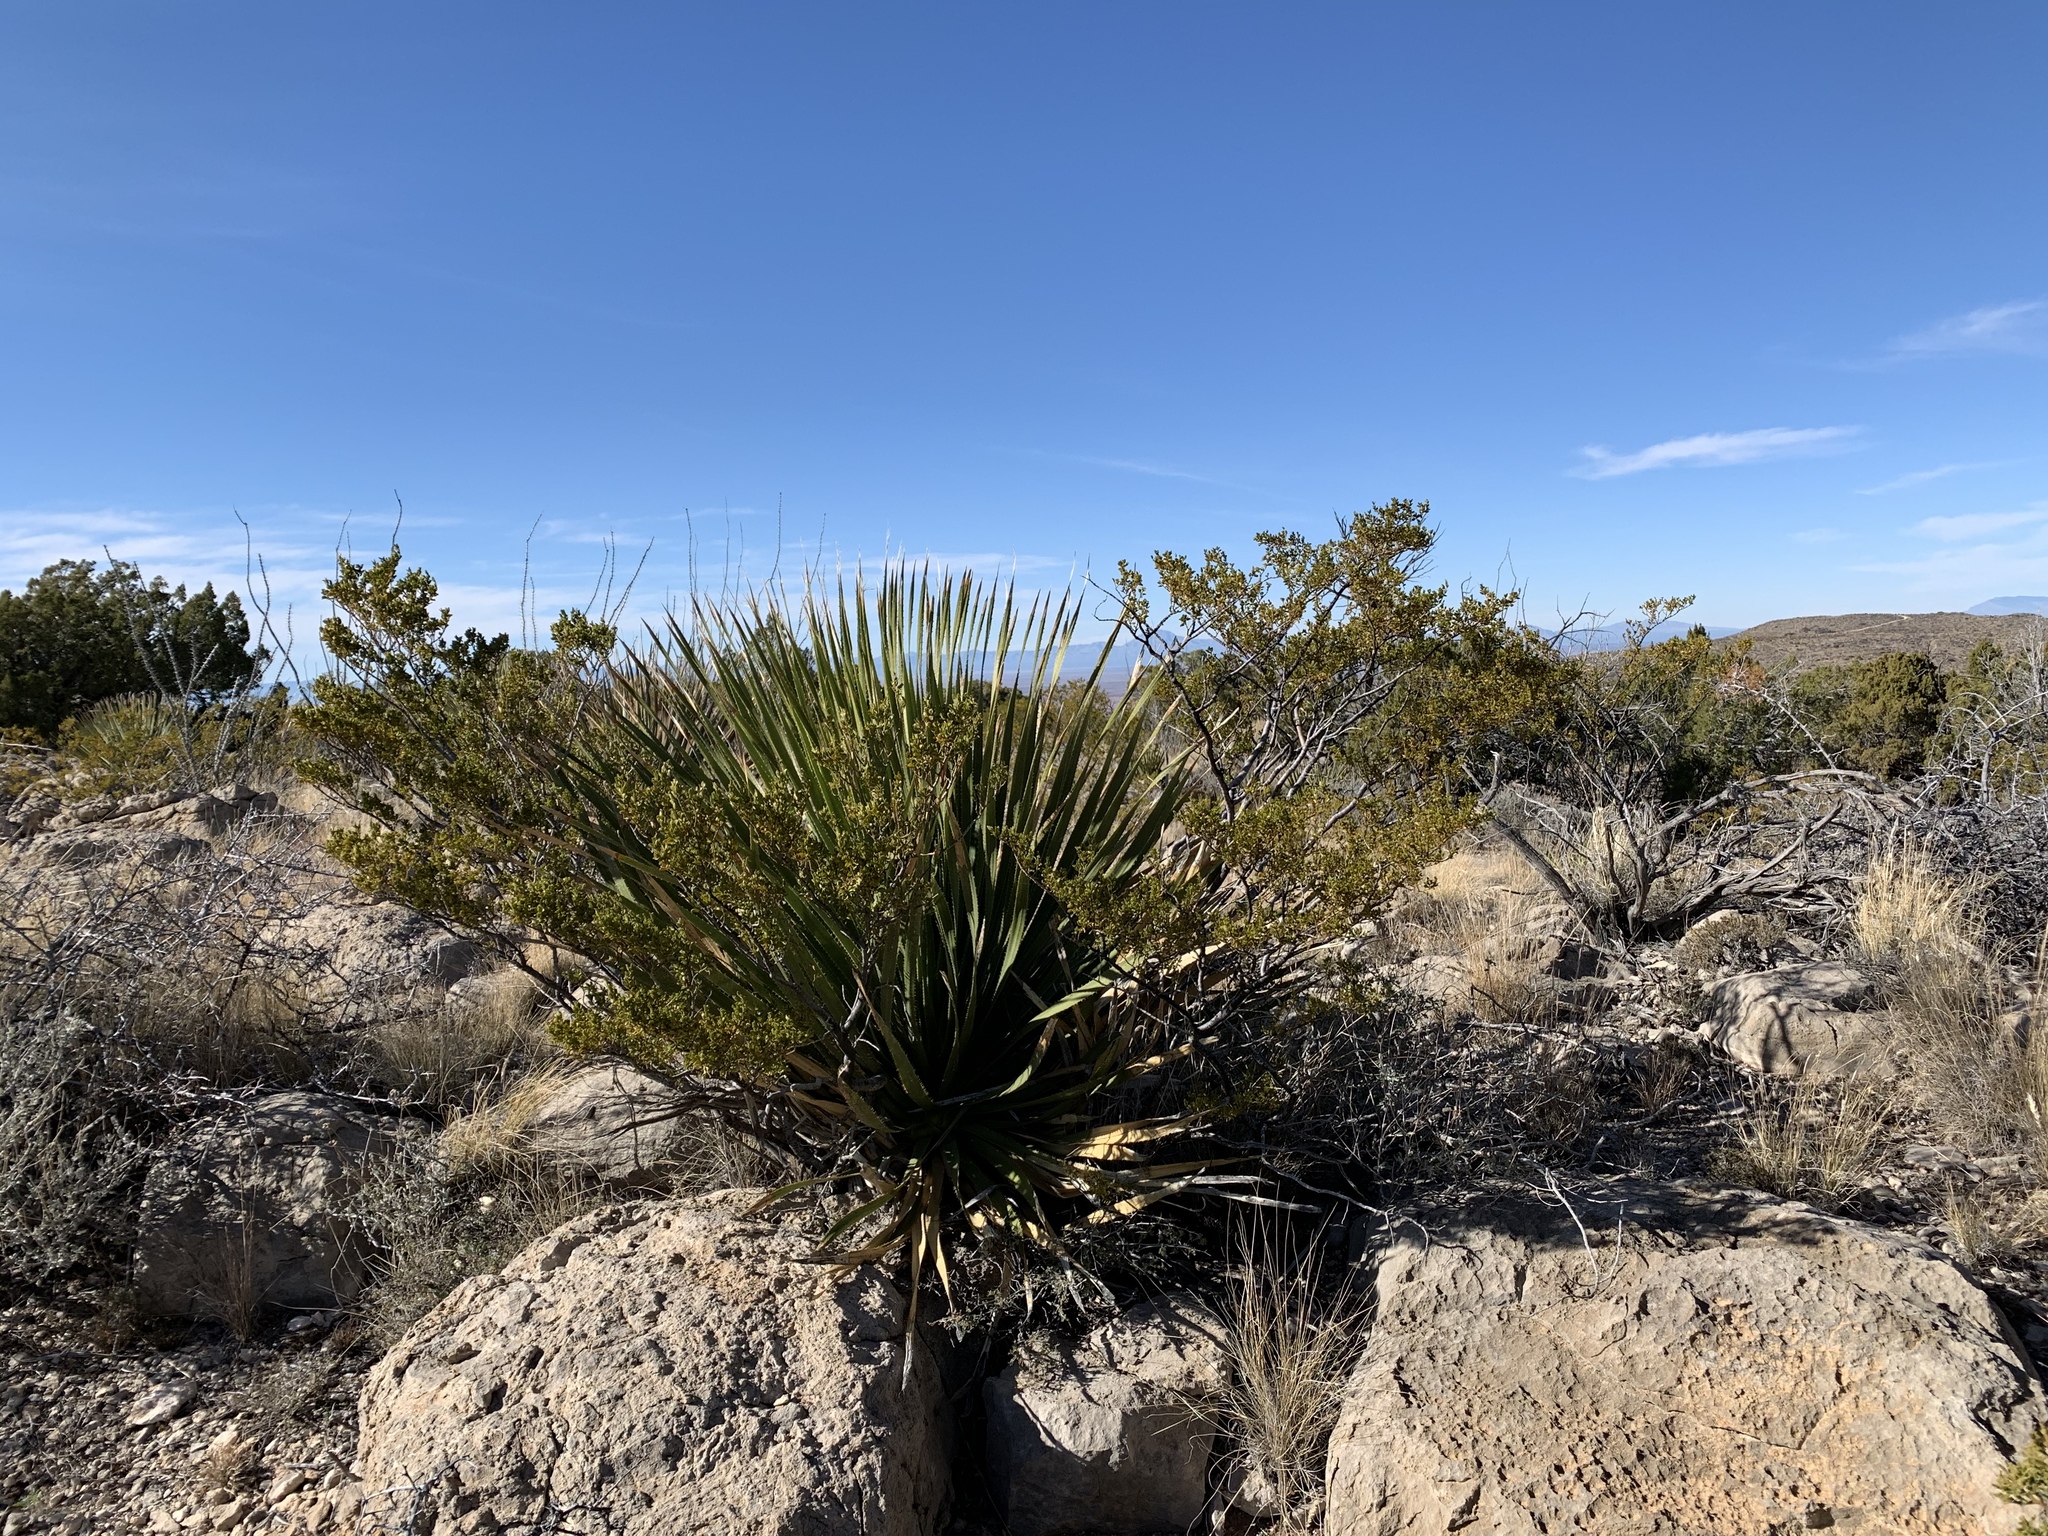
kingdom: Plantae
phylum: Tracheophyta
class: Liliopsida
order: Asparagales
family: Asparagaceae
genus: Dasylirion
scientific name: Dasylirion wheeleri
